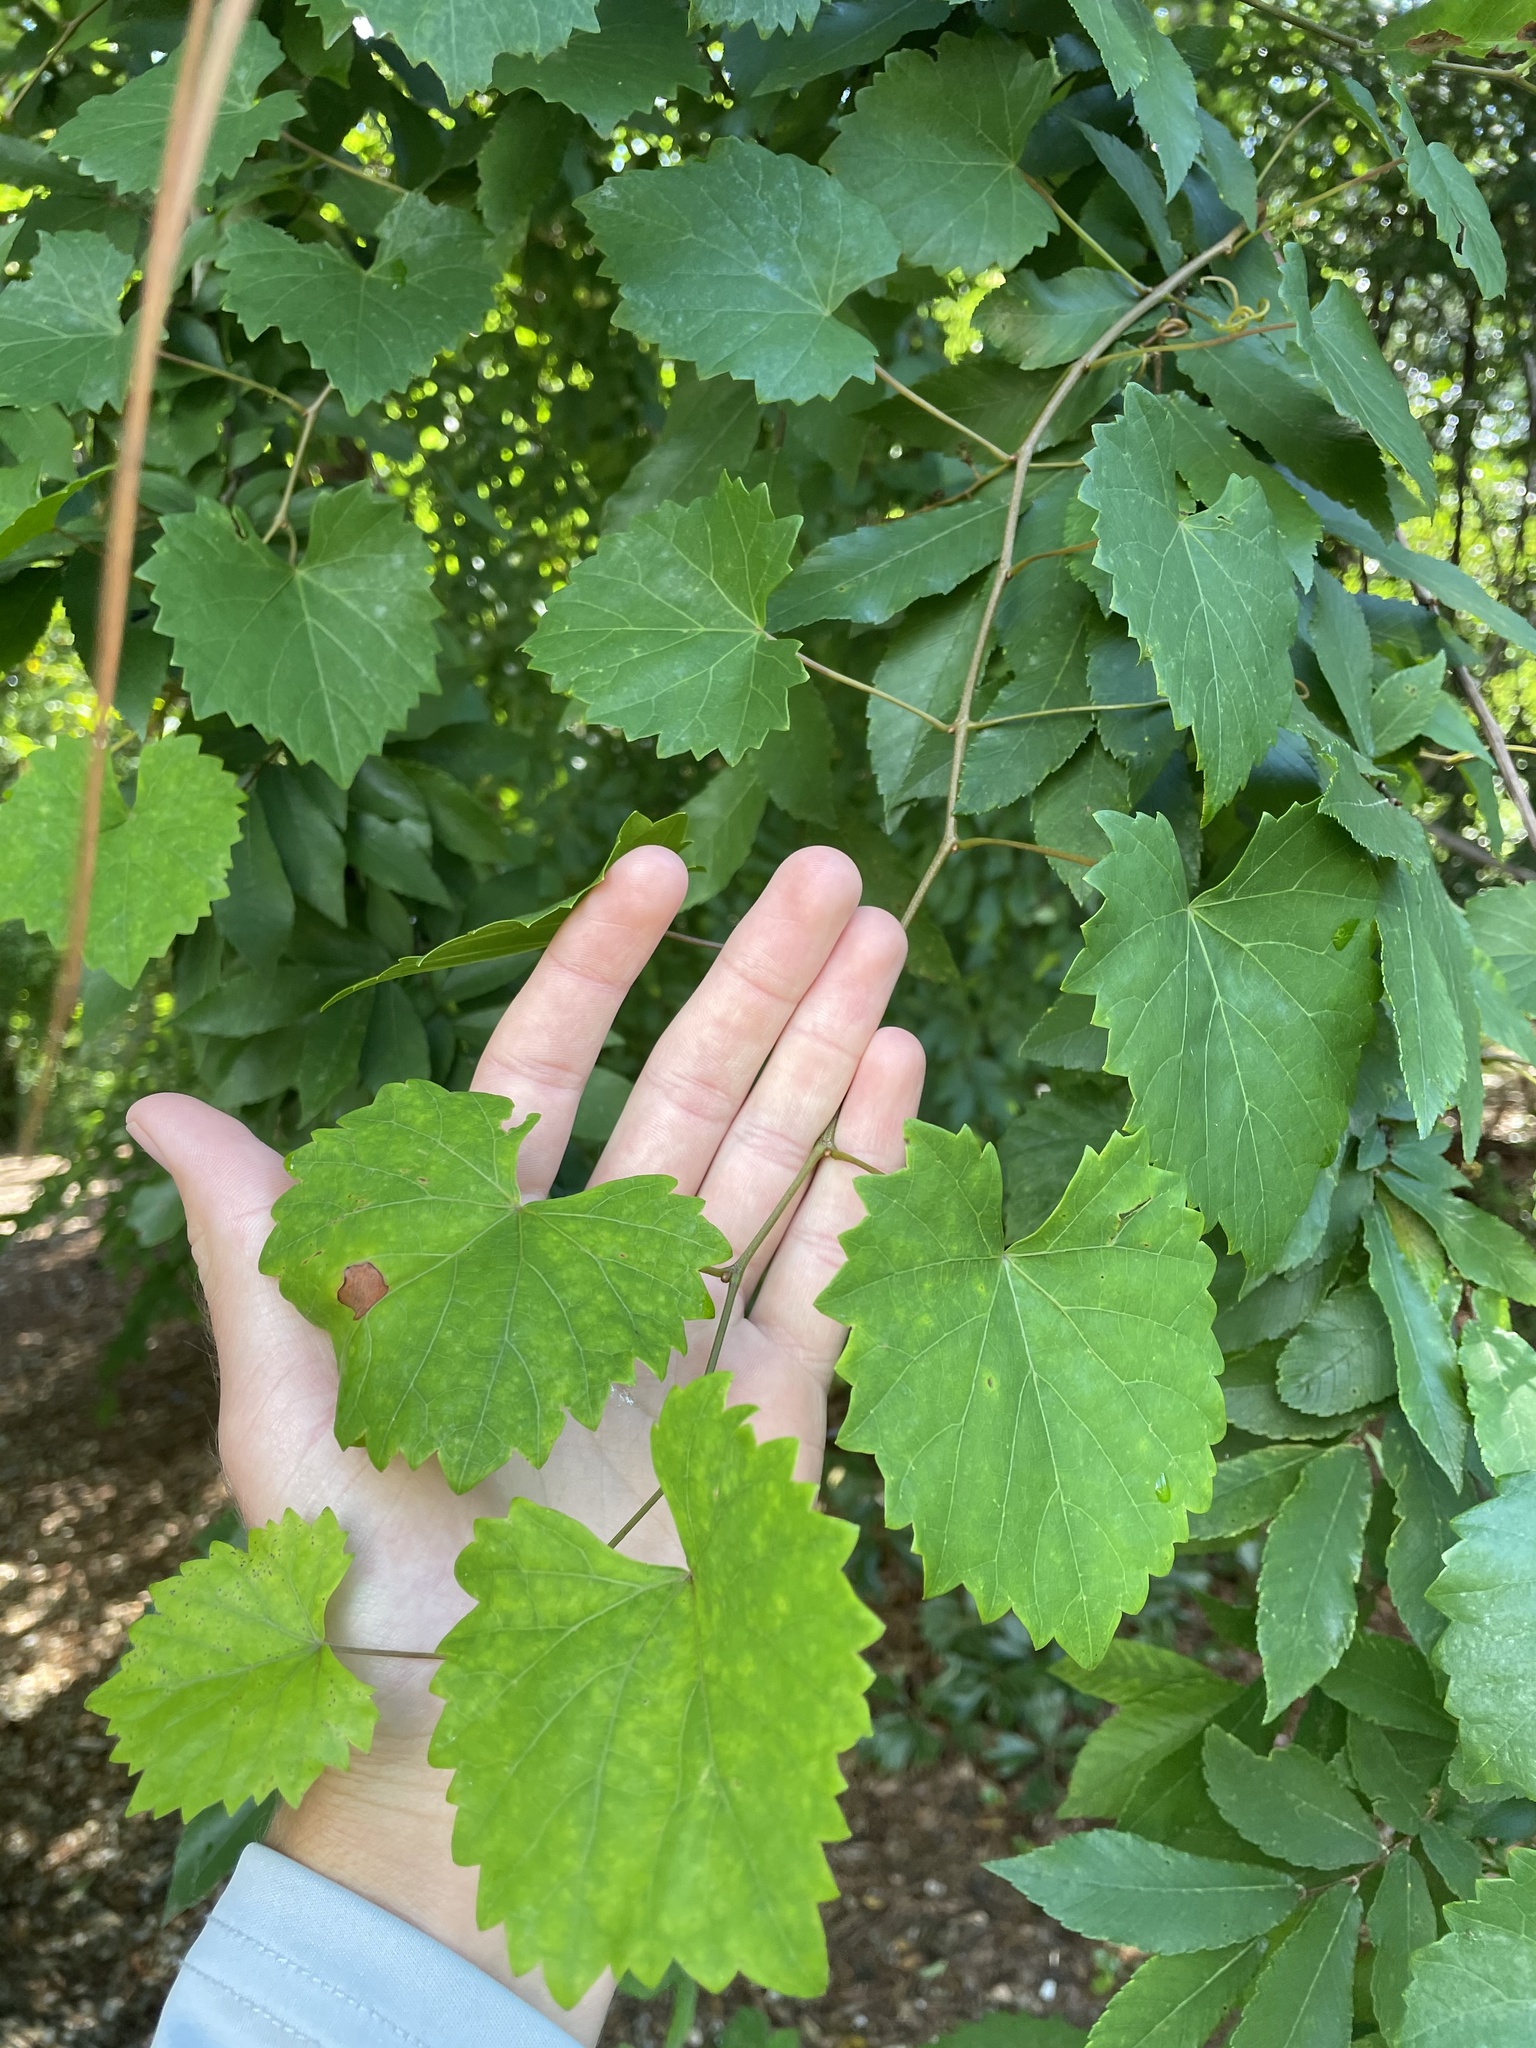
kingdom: Plantae
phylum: Tracheophyta
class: Magnoliopsida
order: Vitales
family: Vitaceae
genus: Vitis
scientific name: Vitis rotundifolia
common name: Muscadine grape
